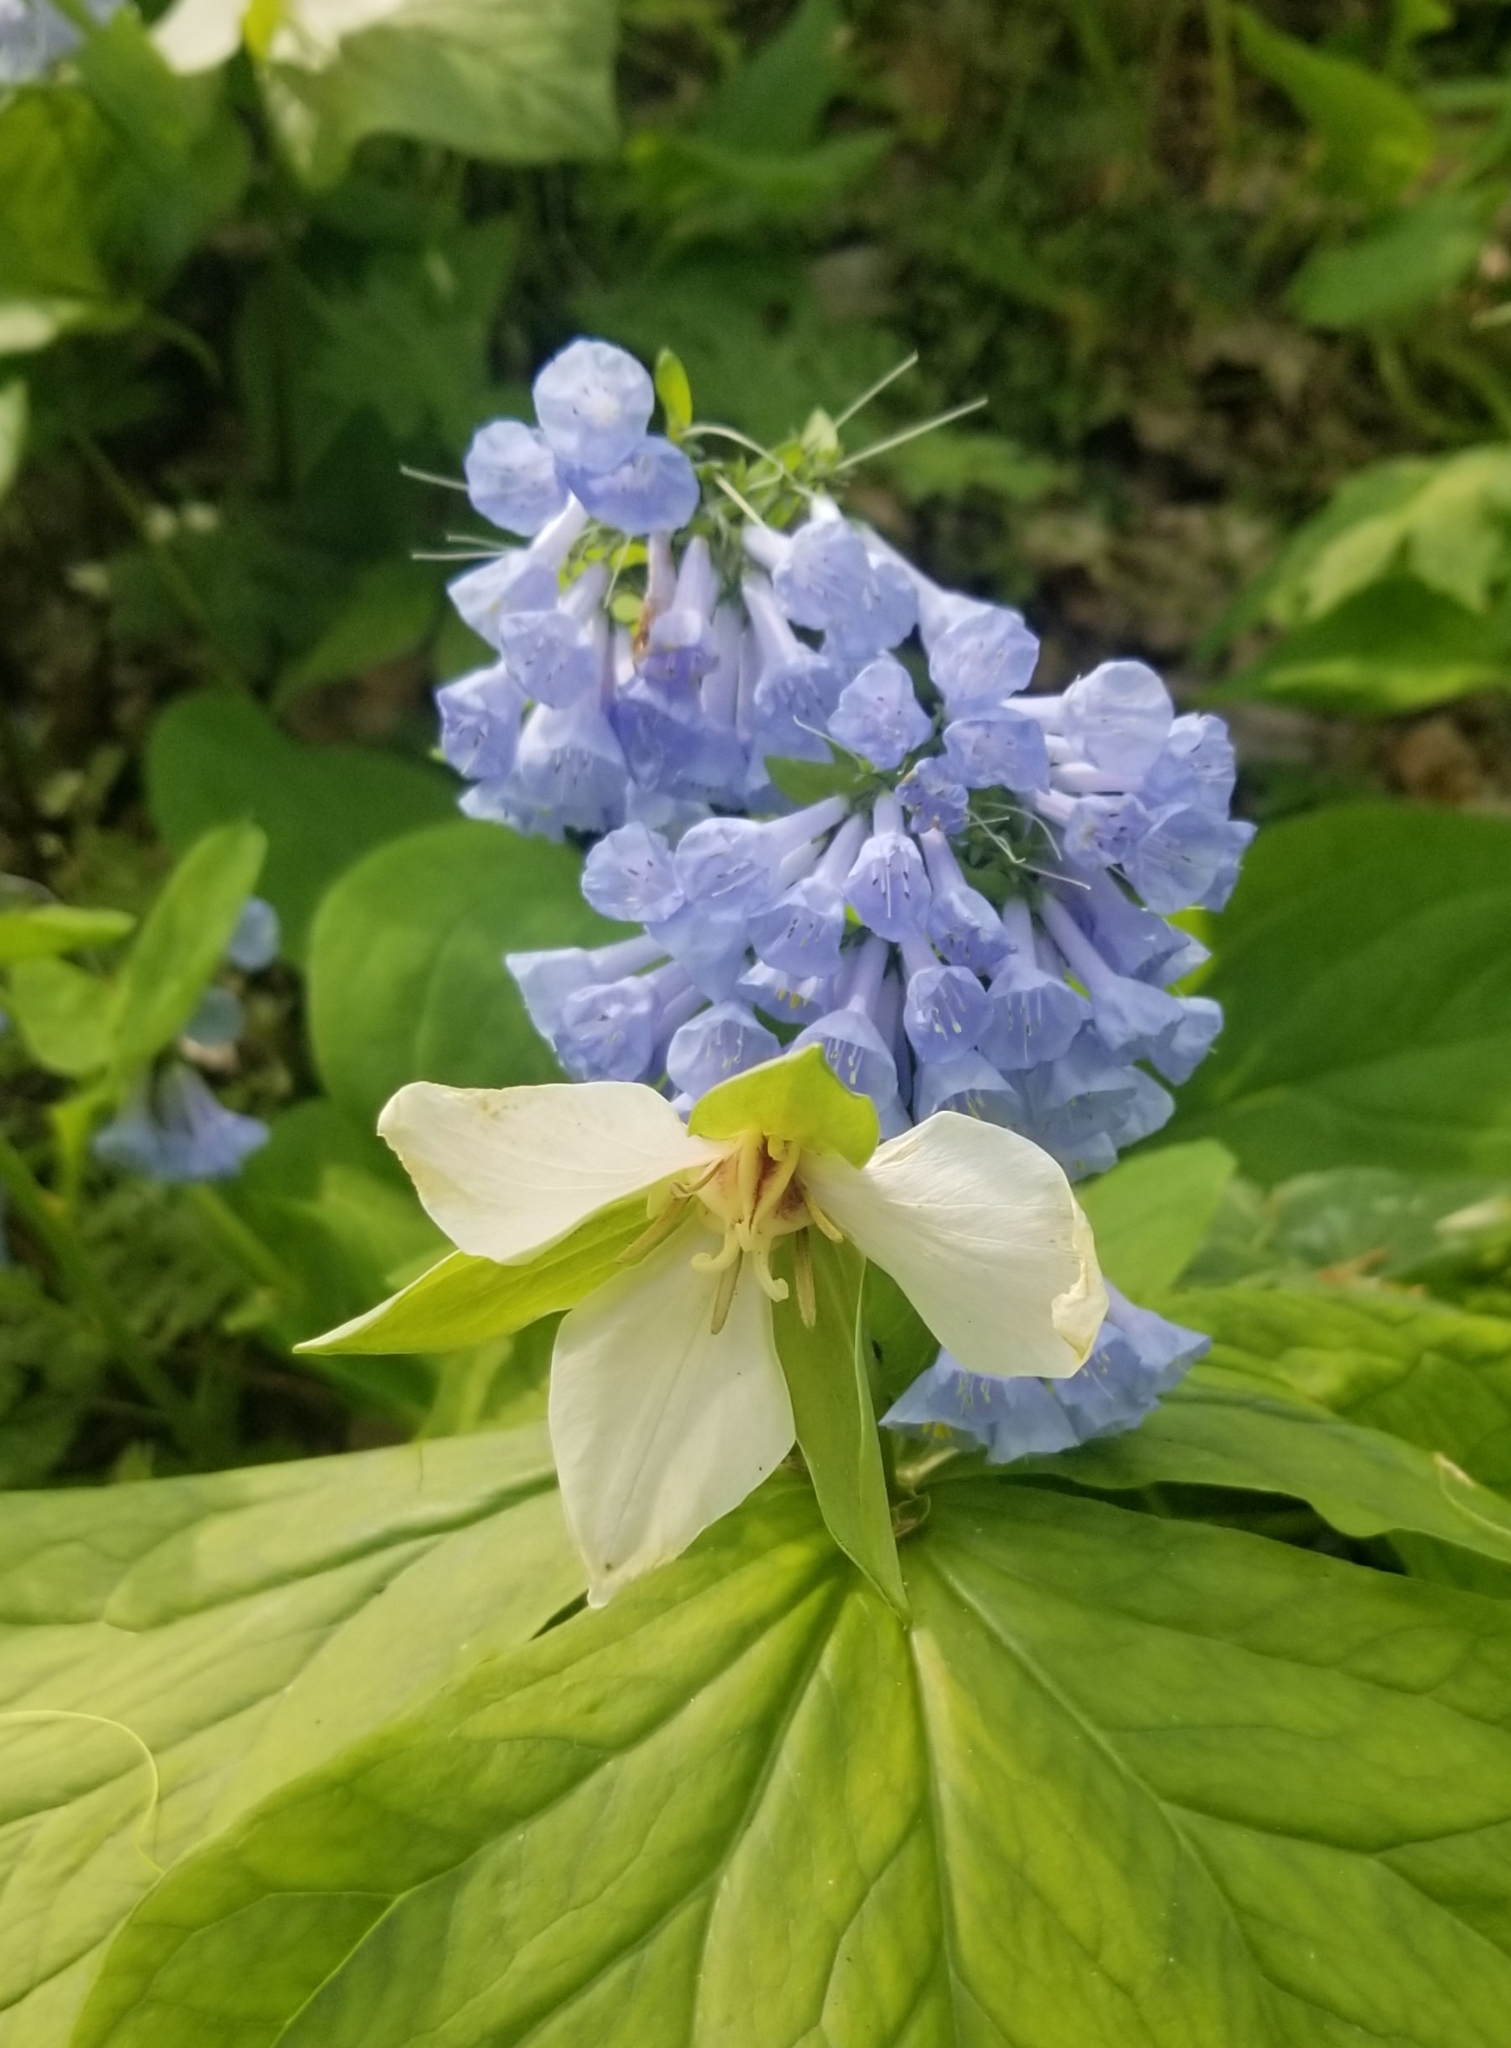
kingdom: Plantae
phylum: Tracheophyta
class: Magnoliopsida
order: Boraginales
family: Boraginaceae
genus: Mertensia
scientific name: Mertensia virginica
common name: Virginia bluebells
